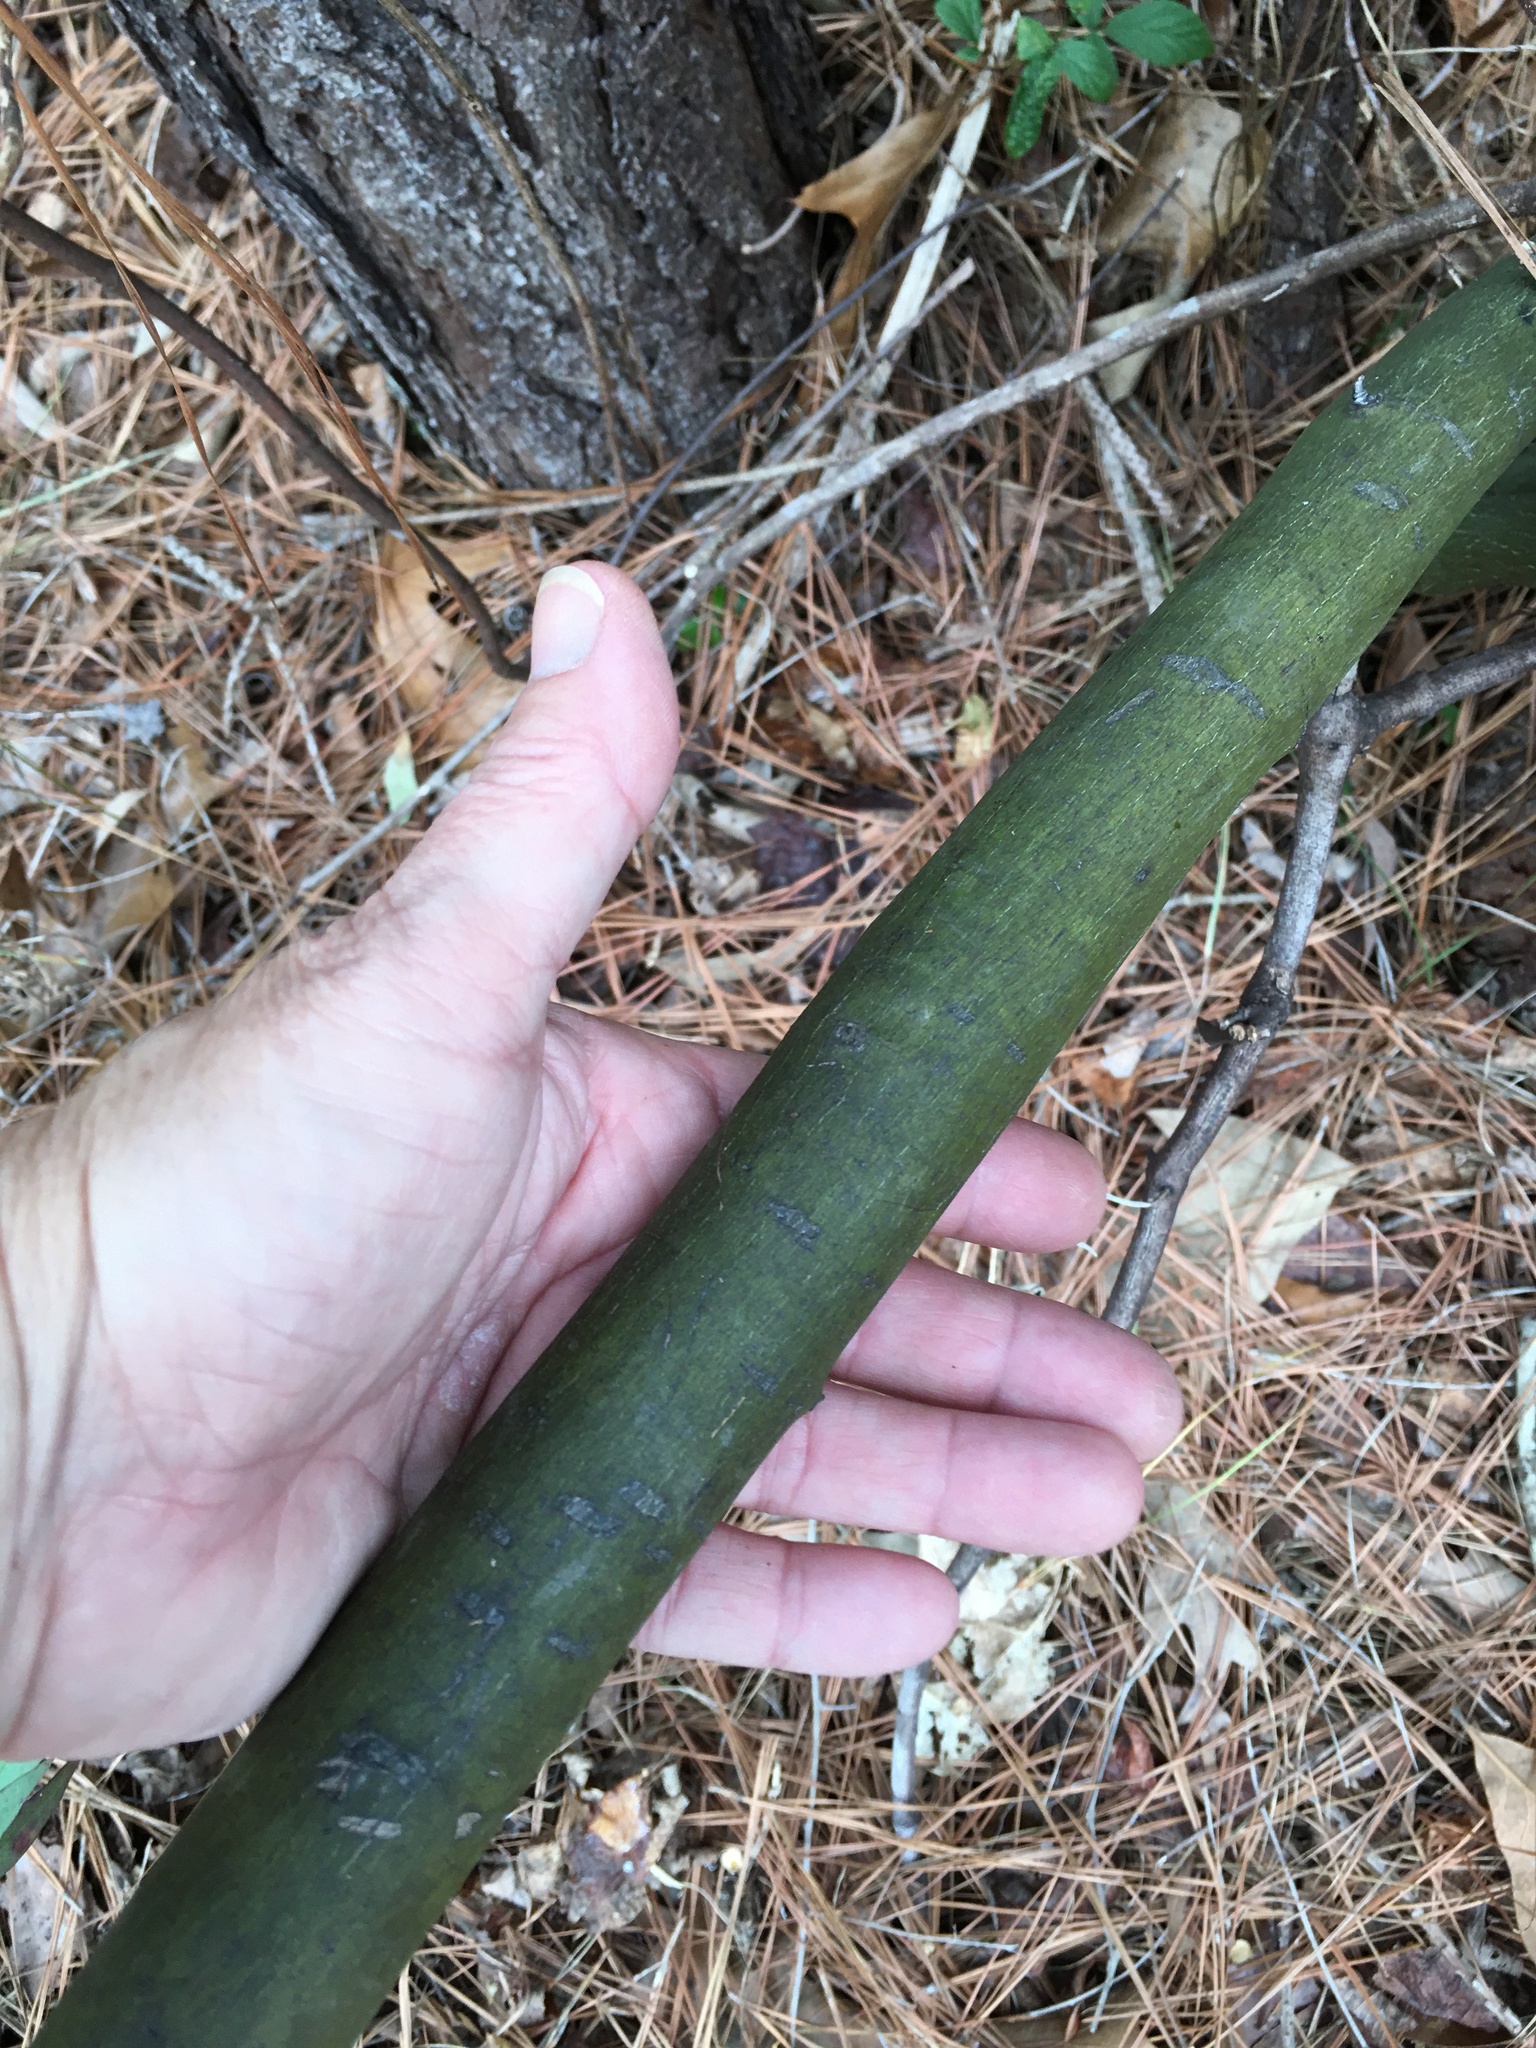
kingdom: Plantae
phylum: Tracheophyta
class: Magnoliopsida
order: Rosales
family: Rhamnaceae
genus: Berchemia
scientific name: Berchemia scandens
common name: Supplejack
